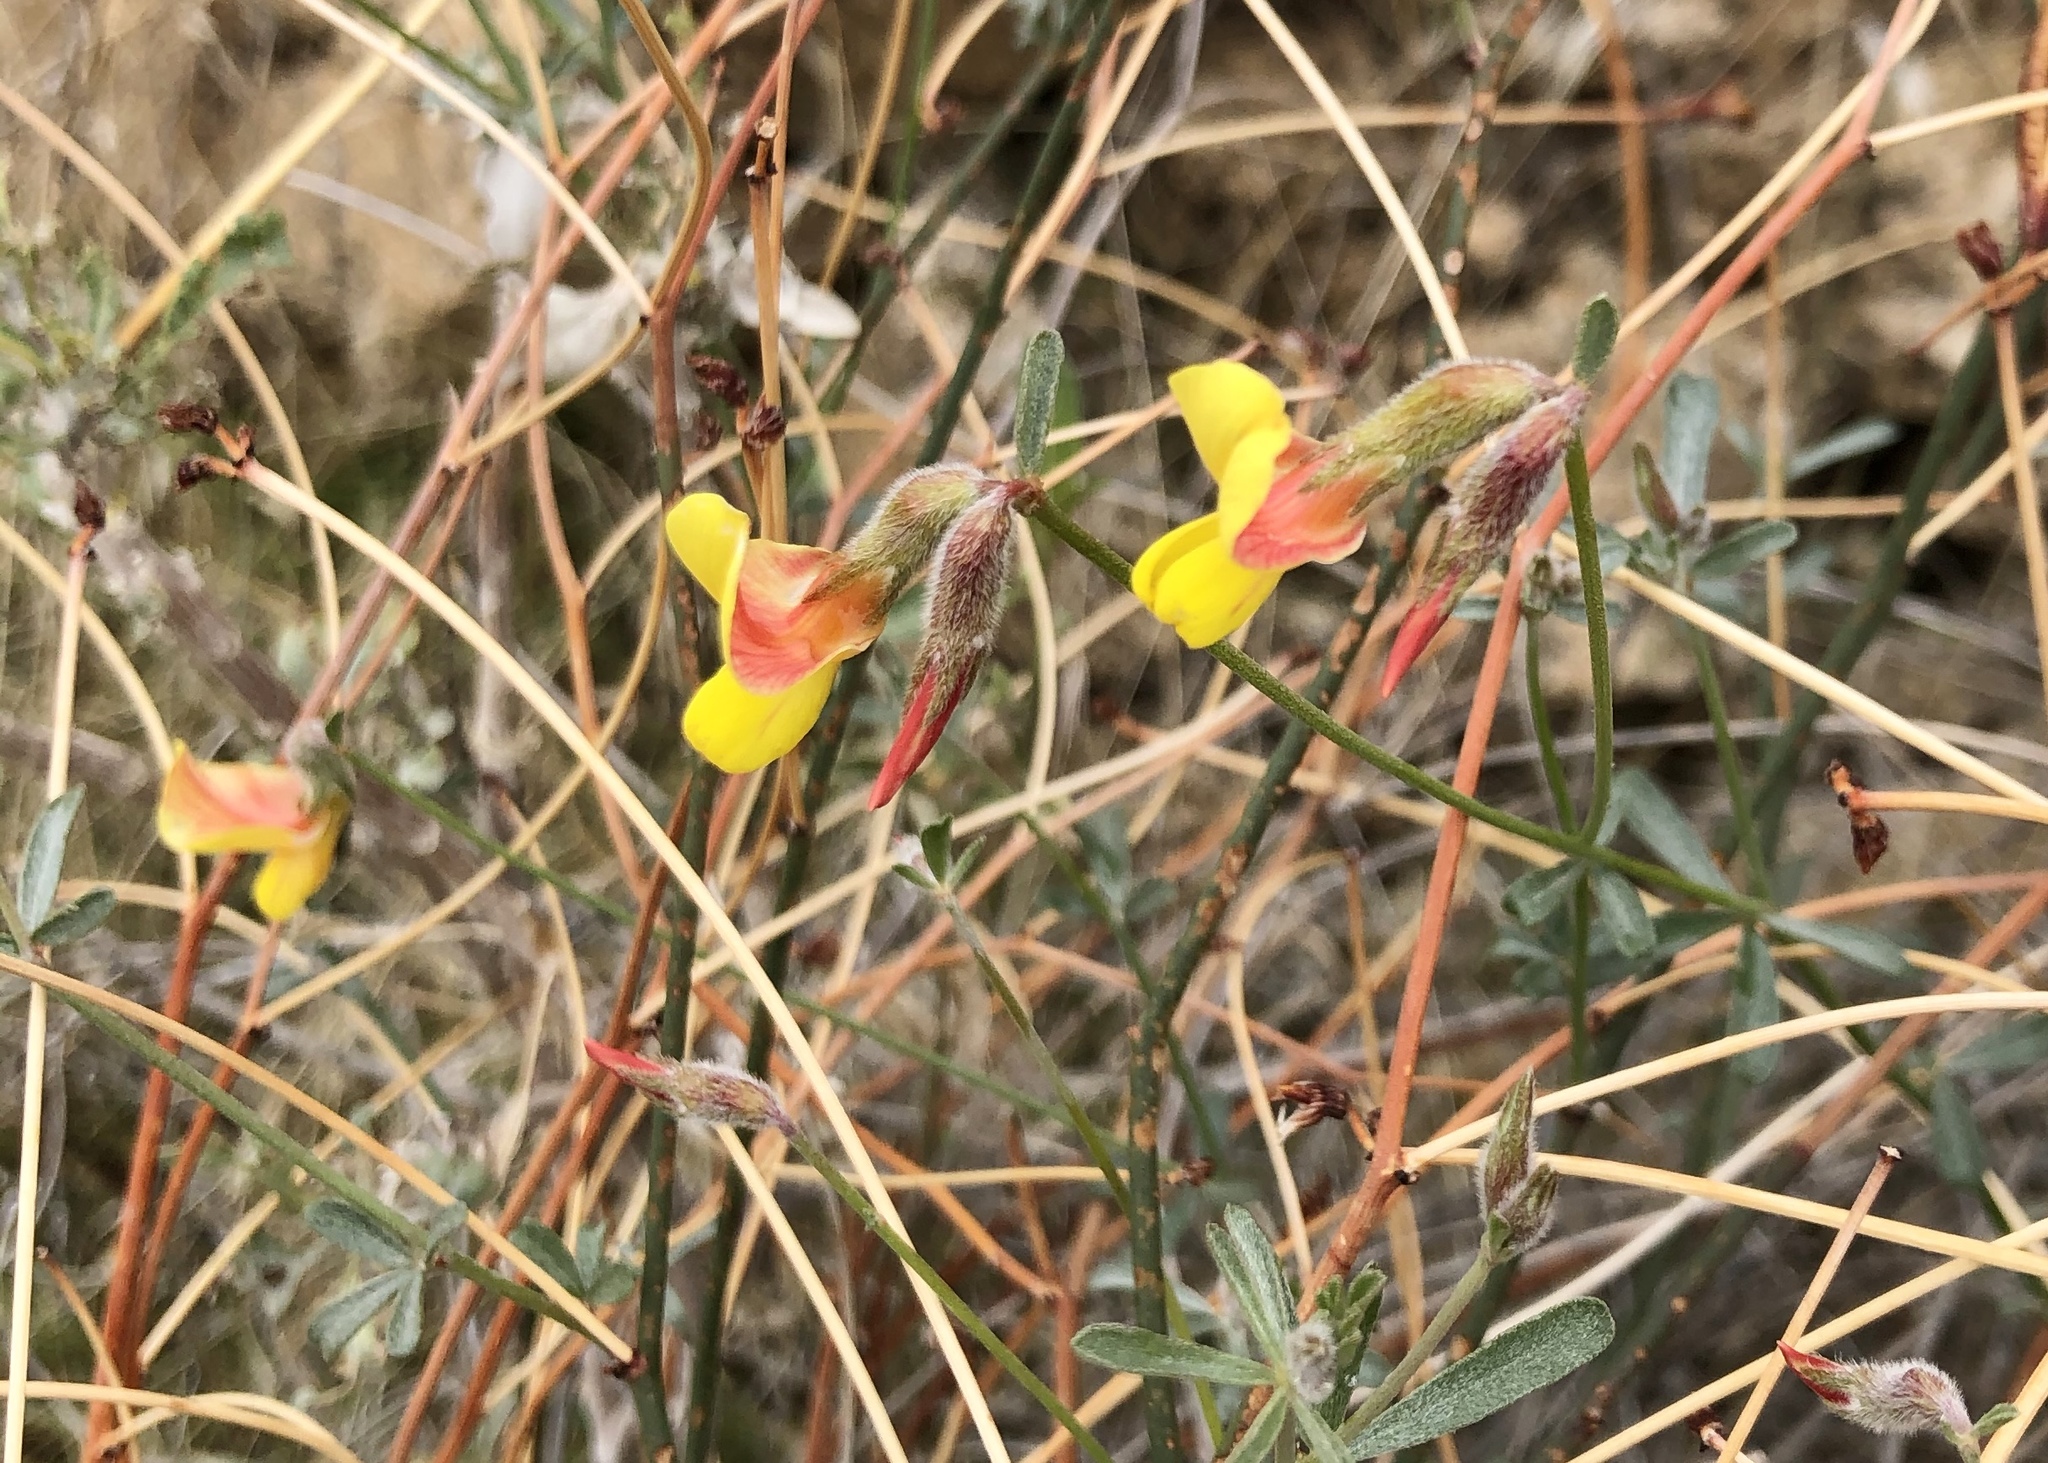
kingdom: Plantae
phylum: Tracheophyta
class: Magnoliopsida
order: Fabales
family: Fabaceae
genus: Acmispon
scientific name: Acmispon rigidus
